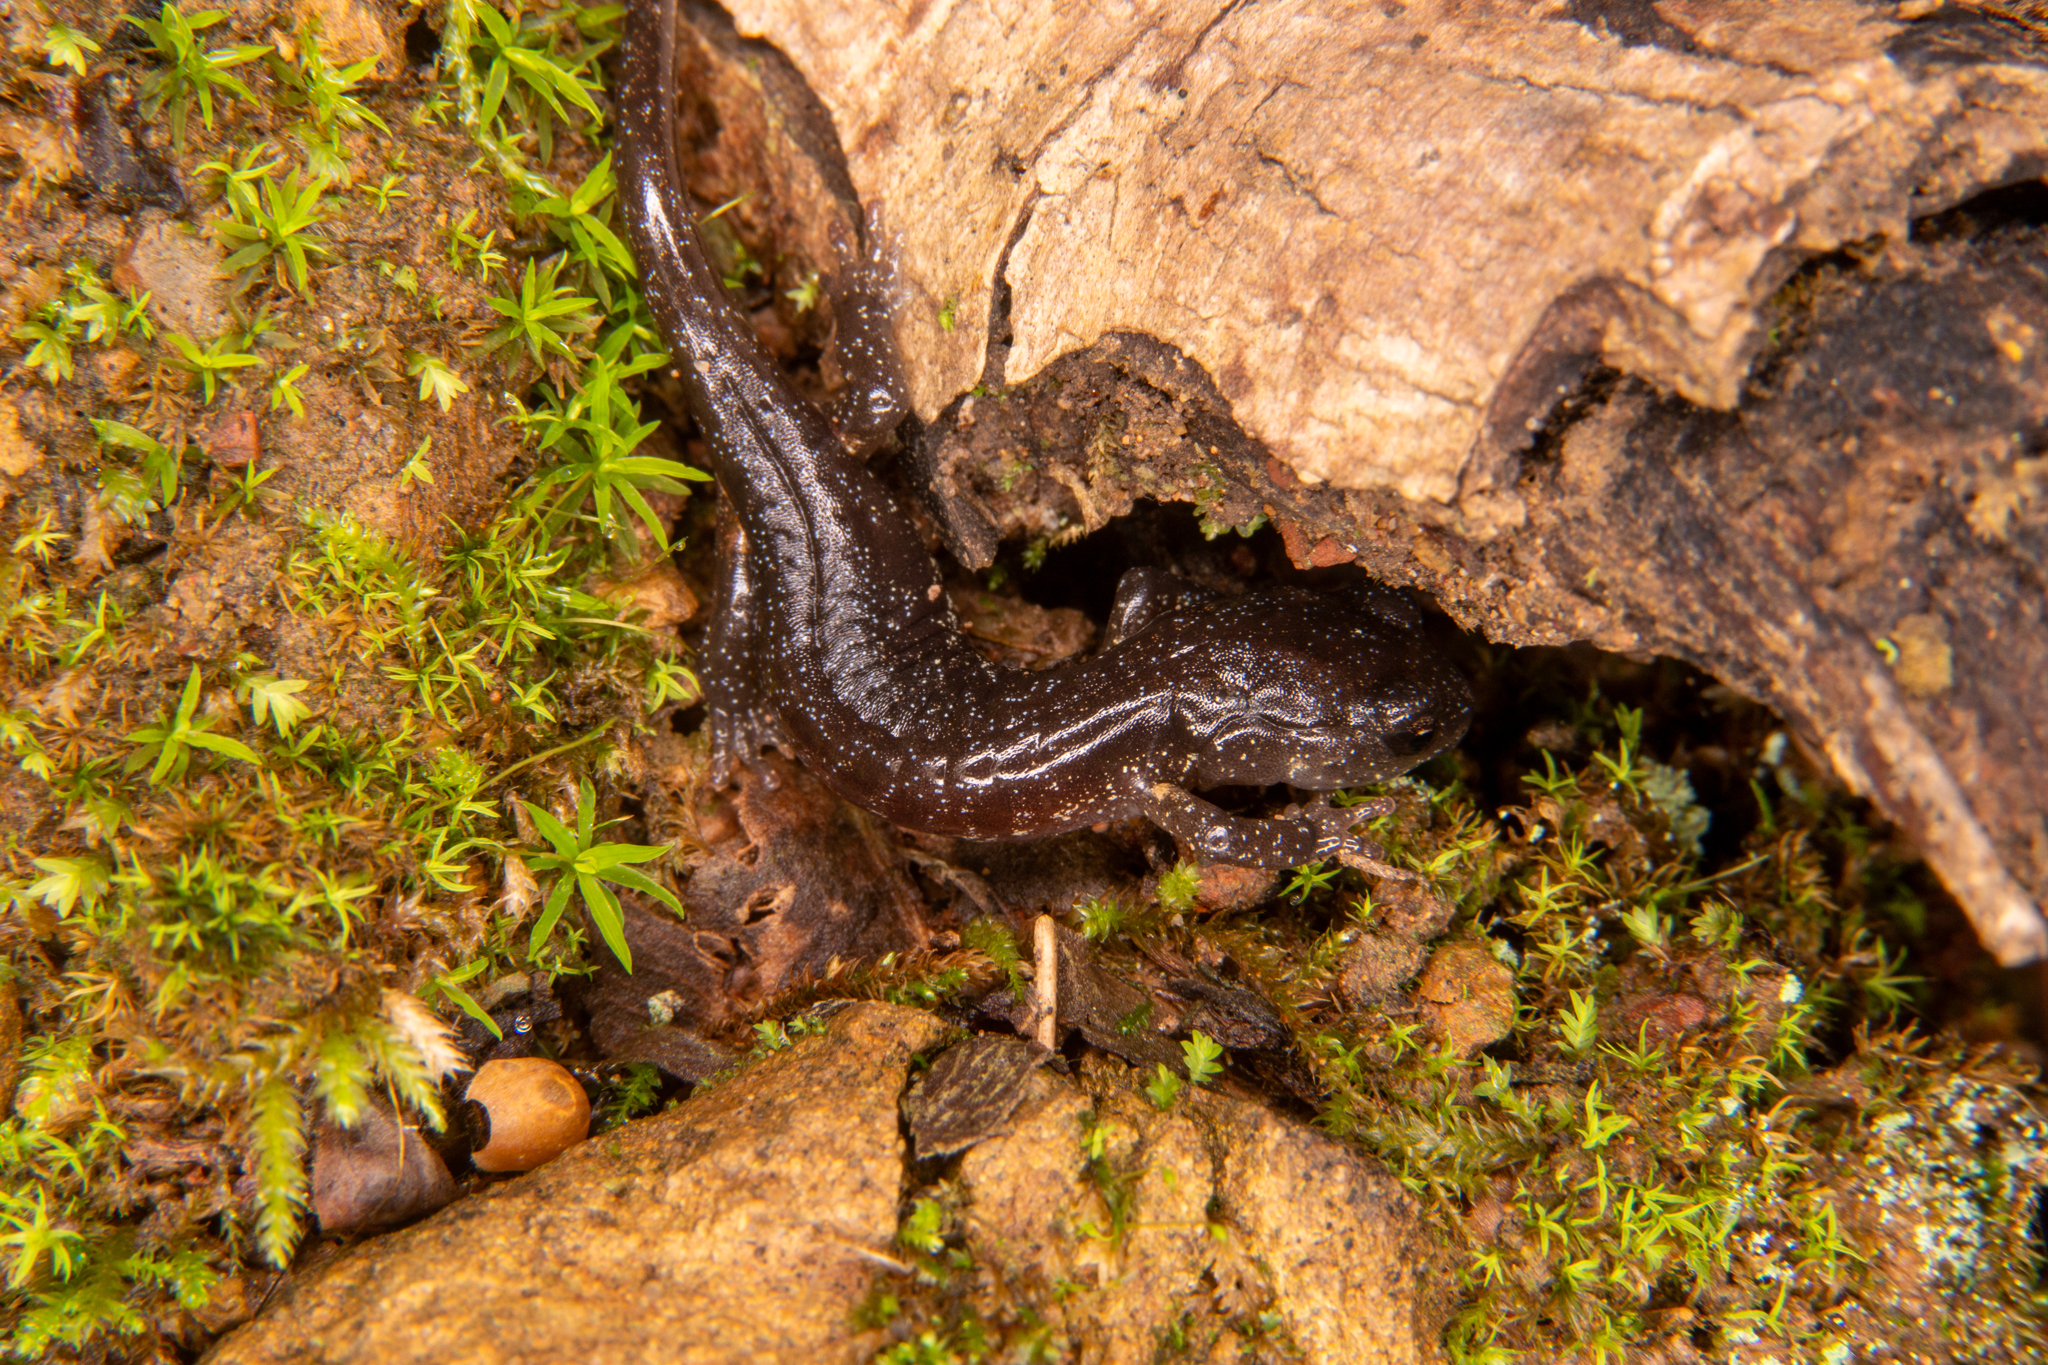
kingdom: Animalia
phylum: Chordata
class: Amphibia
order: Caudata
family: Plethodontidae
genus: Aneides
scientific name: Aneides lugubris
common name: Arboreal salamander
